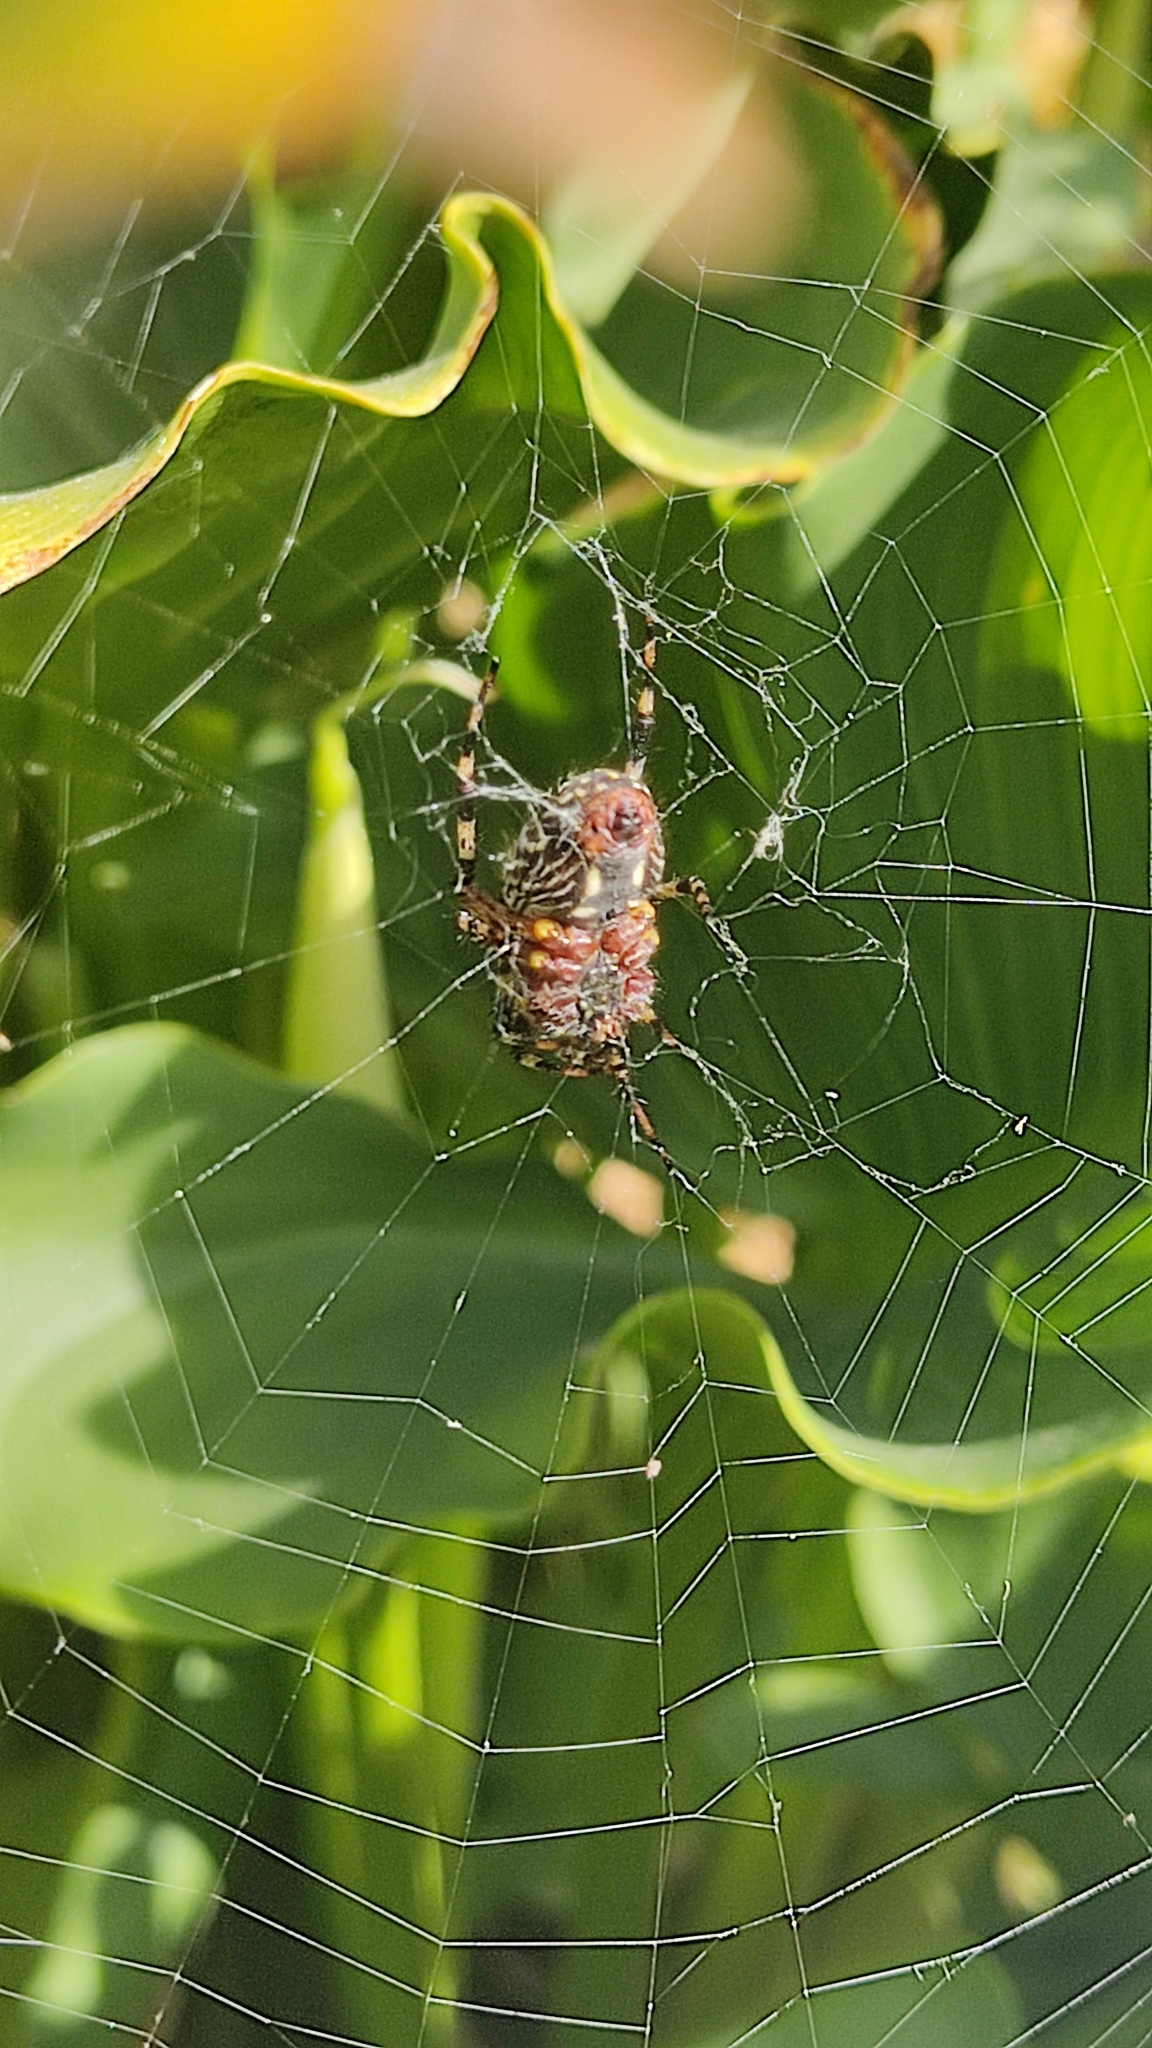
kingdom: Animalia
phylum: Arthropoda
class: Arachnida
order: Araneae
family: Araneidae
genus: Neoscona
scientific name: Neoscona oaxacensis
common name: Orb weavers
